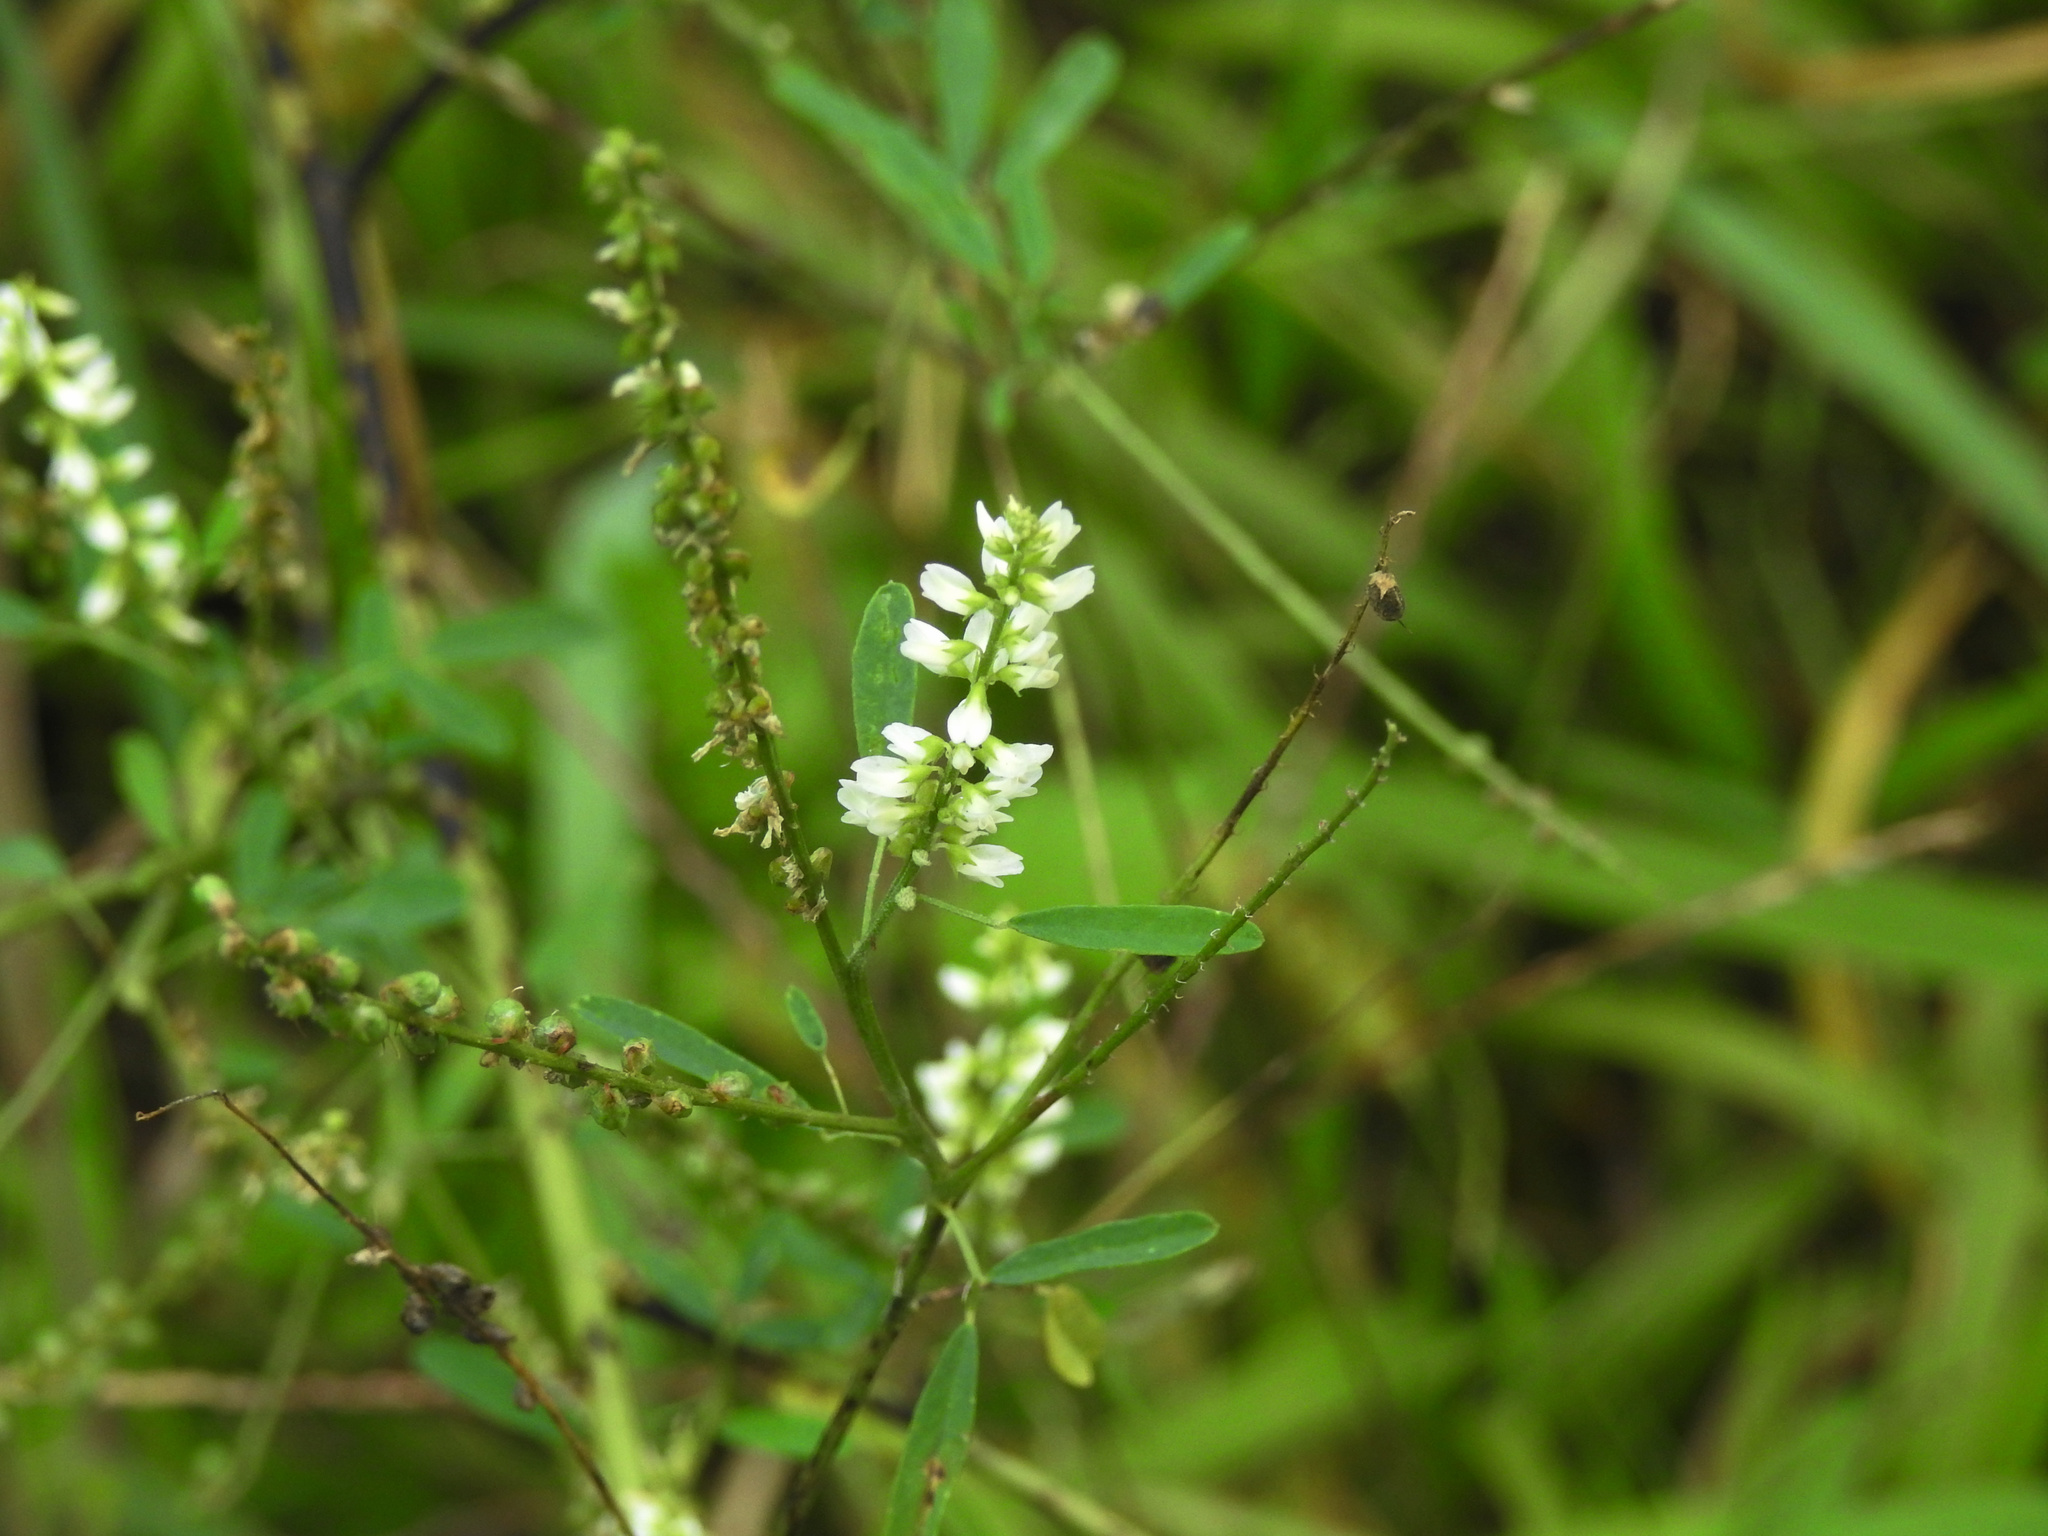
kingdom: Plantae
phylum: Tracheophyta
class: Magnoliopsida
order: Fabales
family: Fabaceae
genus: Melilotus
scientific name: Melilotus albus
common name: White melilot
